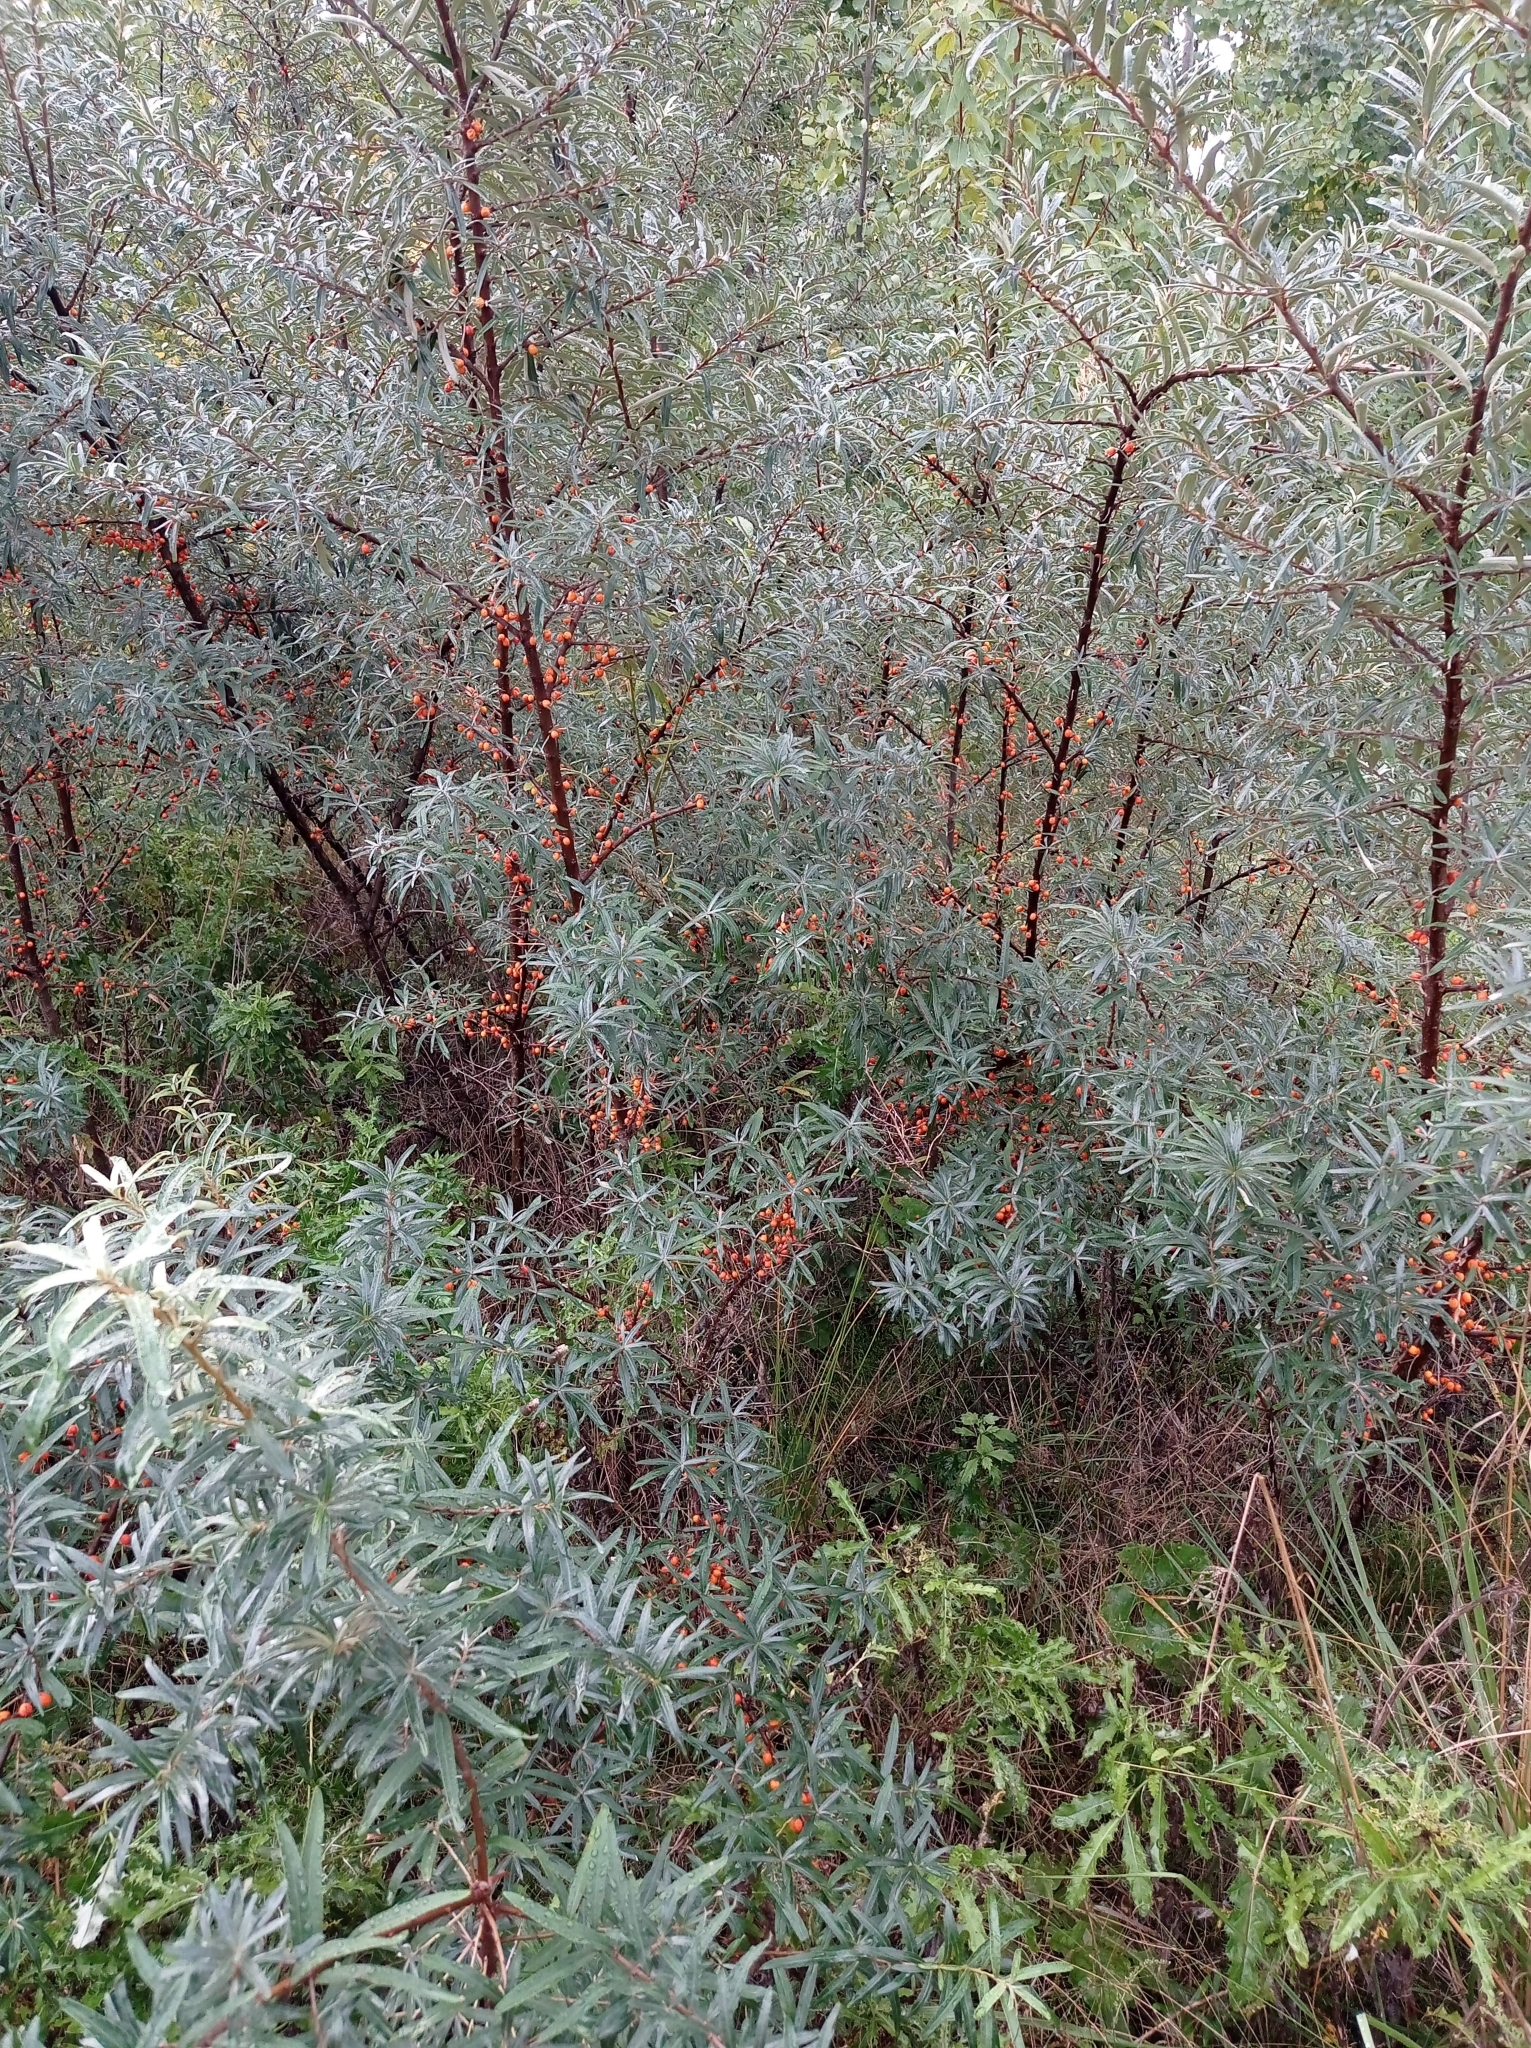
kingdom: Plantae
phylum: Tracheophyta
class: Magnoliopsida
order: Rosales
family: Elaeagnaceae
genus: Hippophae
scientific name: Hippophae rhamnoides
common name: Sea-buckthorn
